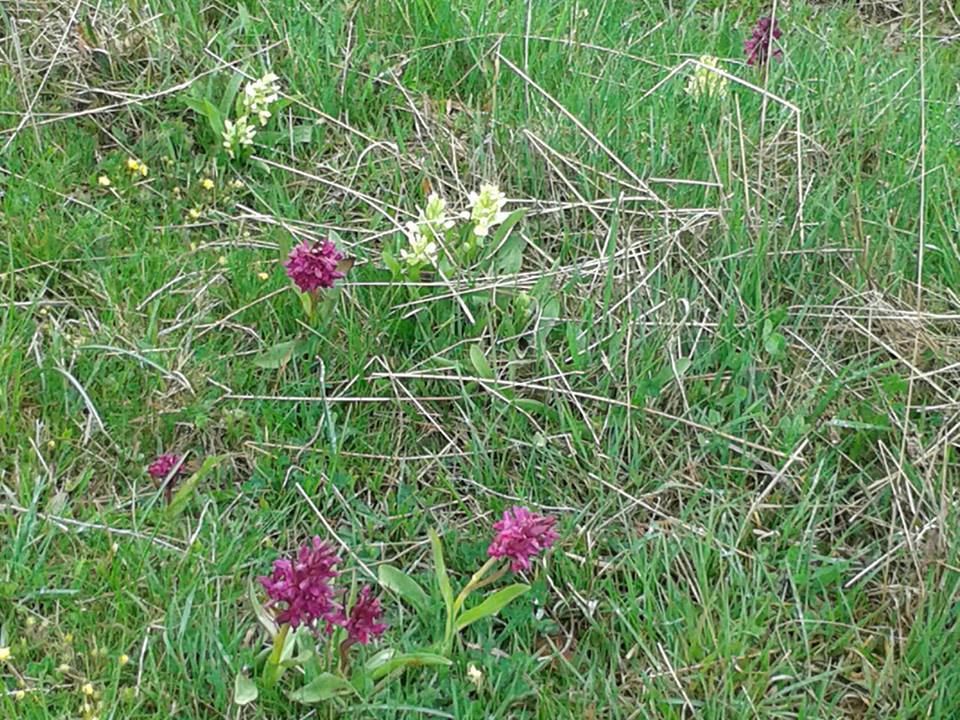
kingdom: Plantae
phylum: Tracheophyta
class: Liliopsida
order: Asparagales
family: Orchidaceae
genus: Dactylorhiza
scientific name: Dactylorhiza sambucina
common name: Elder-flowered orchid
